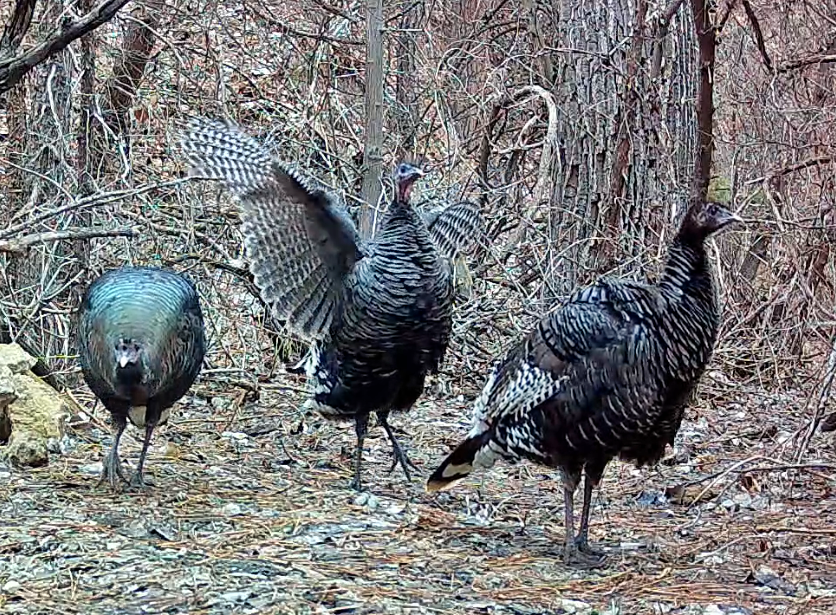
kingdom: Animalia
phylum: Chordata
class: Aves
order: Galliformes
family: Phasianidae
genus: Meleagris
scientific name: Meleagris gallopavo
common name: Wild turkey
